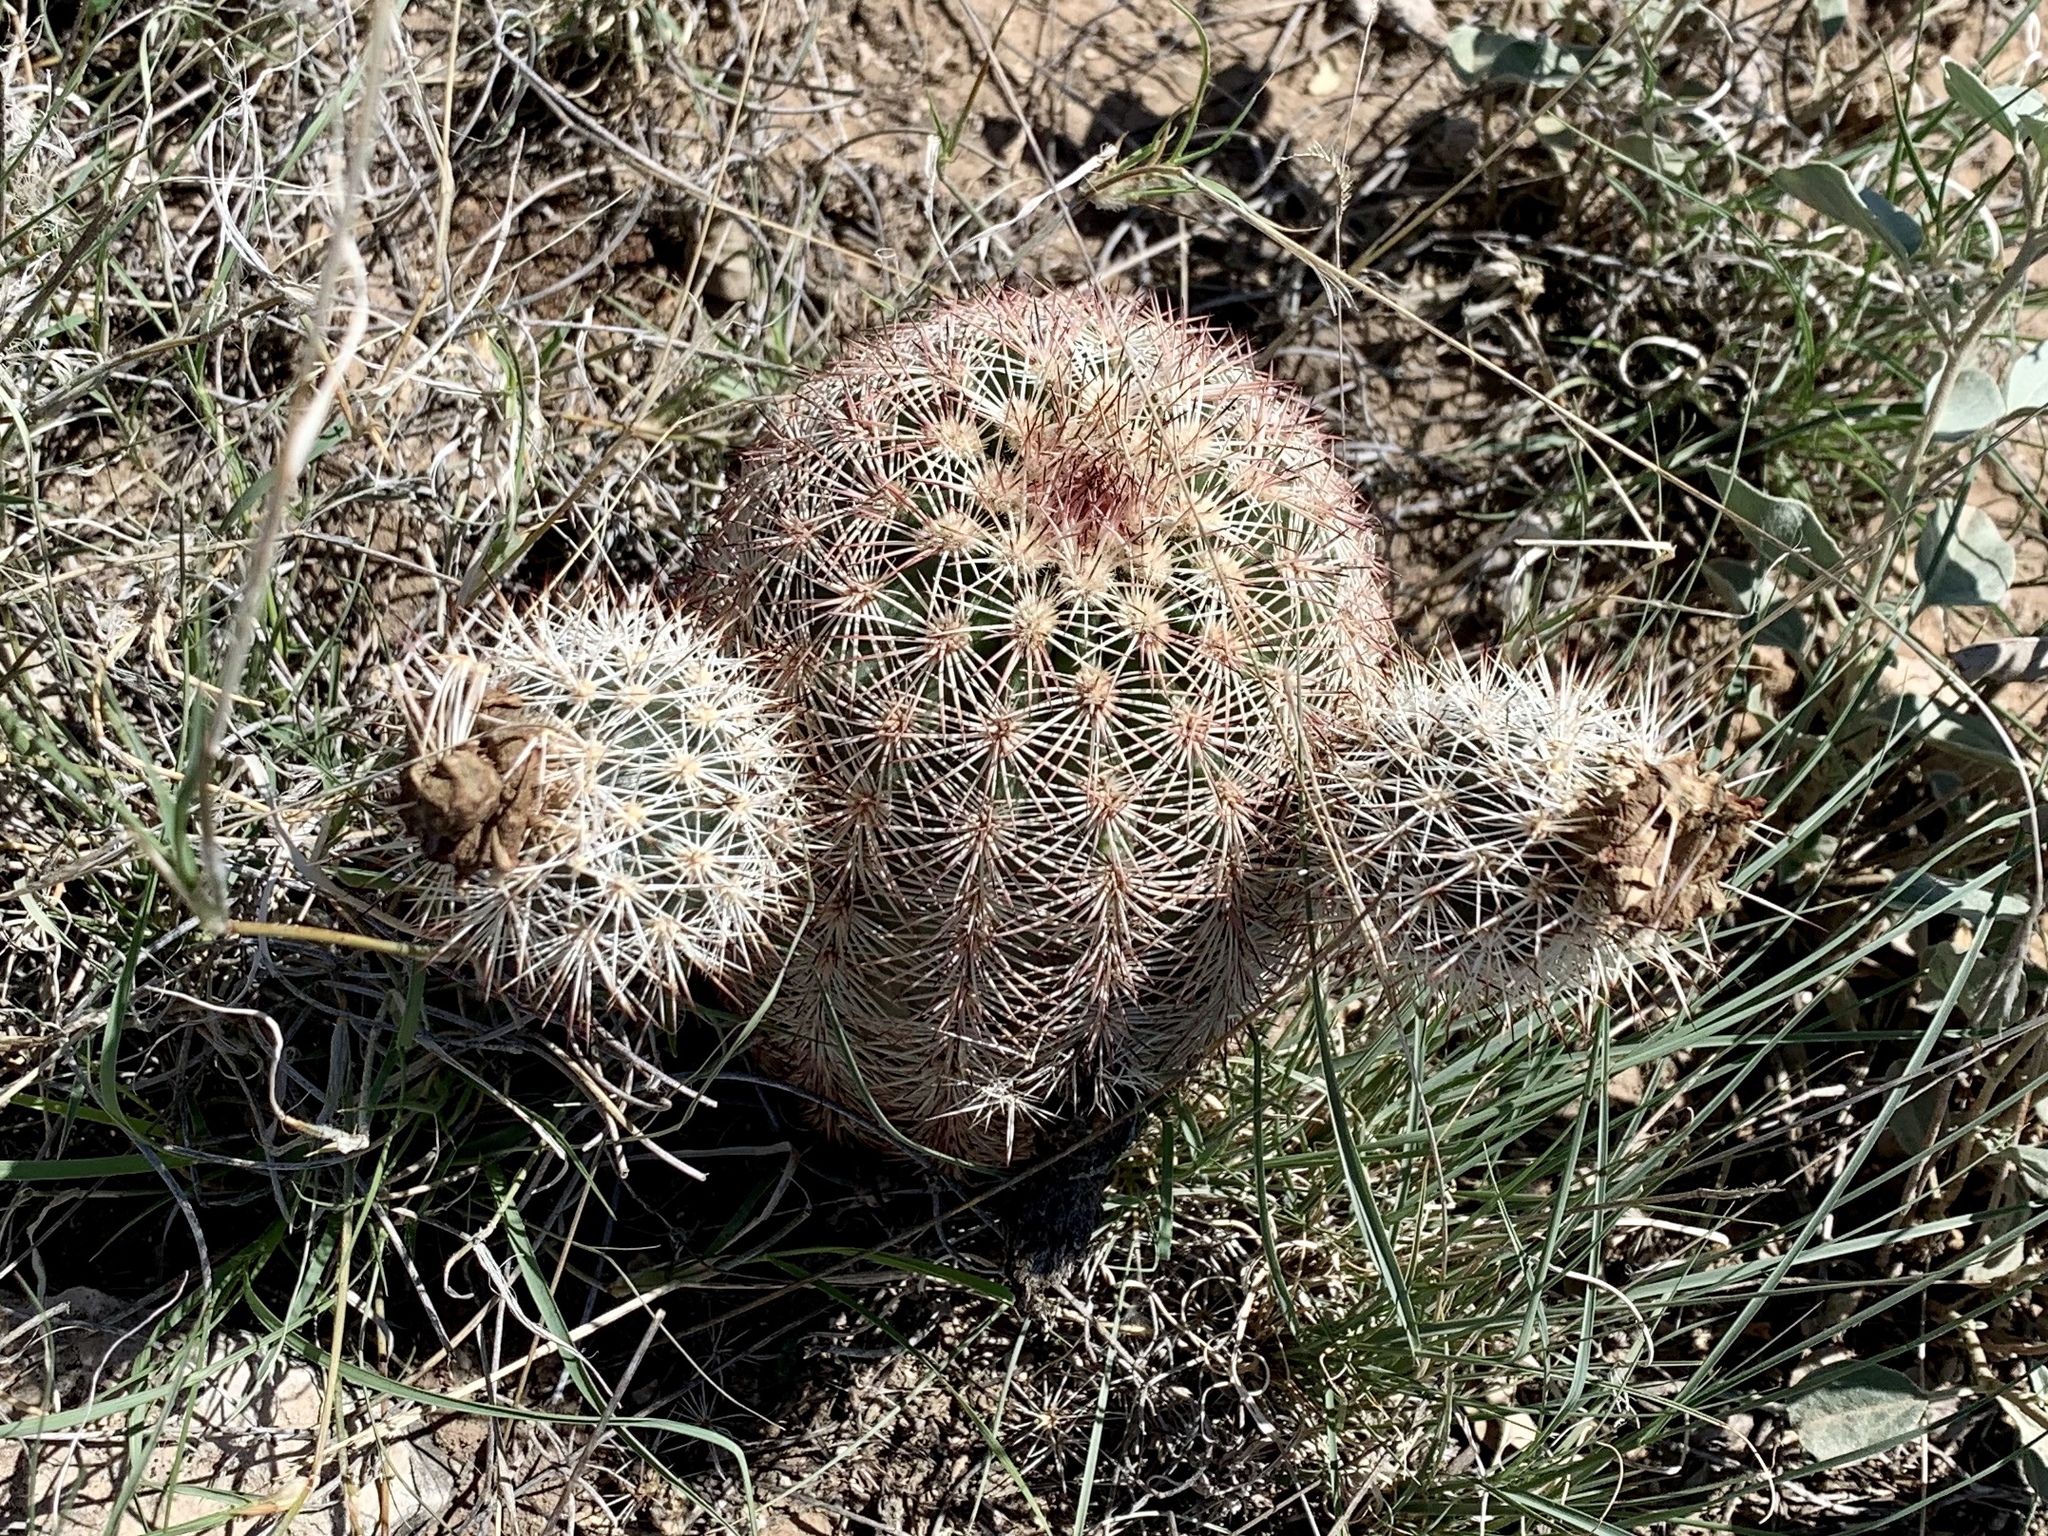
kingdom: Plantae
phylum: Tracheophyta
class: Magnoliopsida
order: Caryophyllales
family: Cactaceae
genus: Echinocereus
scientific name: Echinocereus dasyacanthus
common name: Spiny hedgehog cactus
